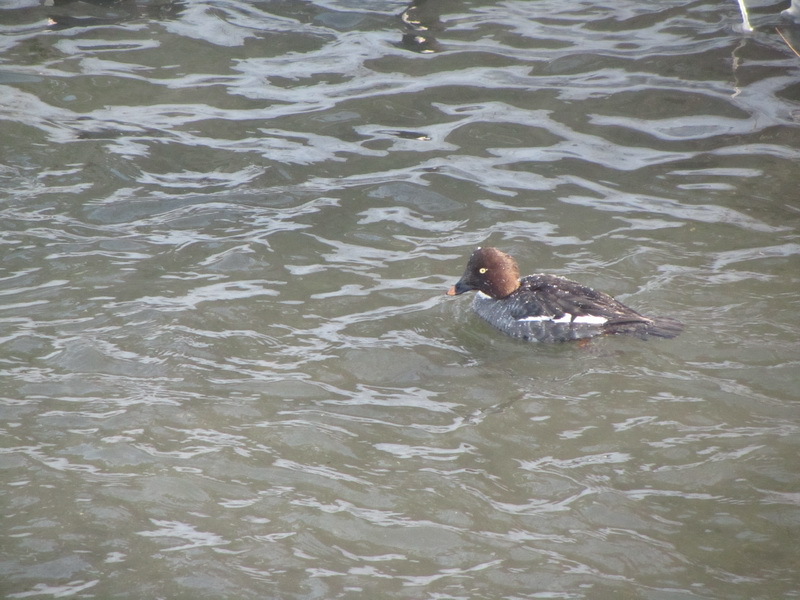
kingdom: Animalia
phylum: Chordata
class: Aves
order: Anseriformes
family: Anatidae
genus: Bucephala
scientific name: Bucephala clangula
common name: Common goldeneye
